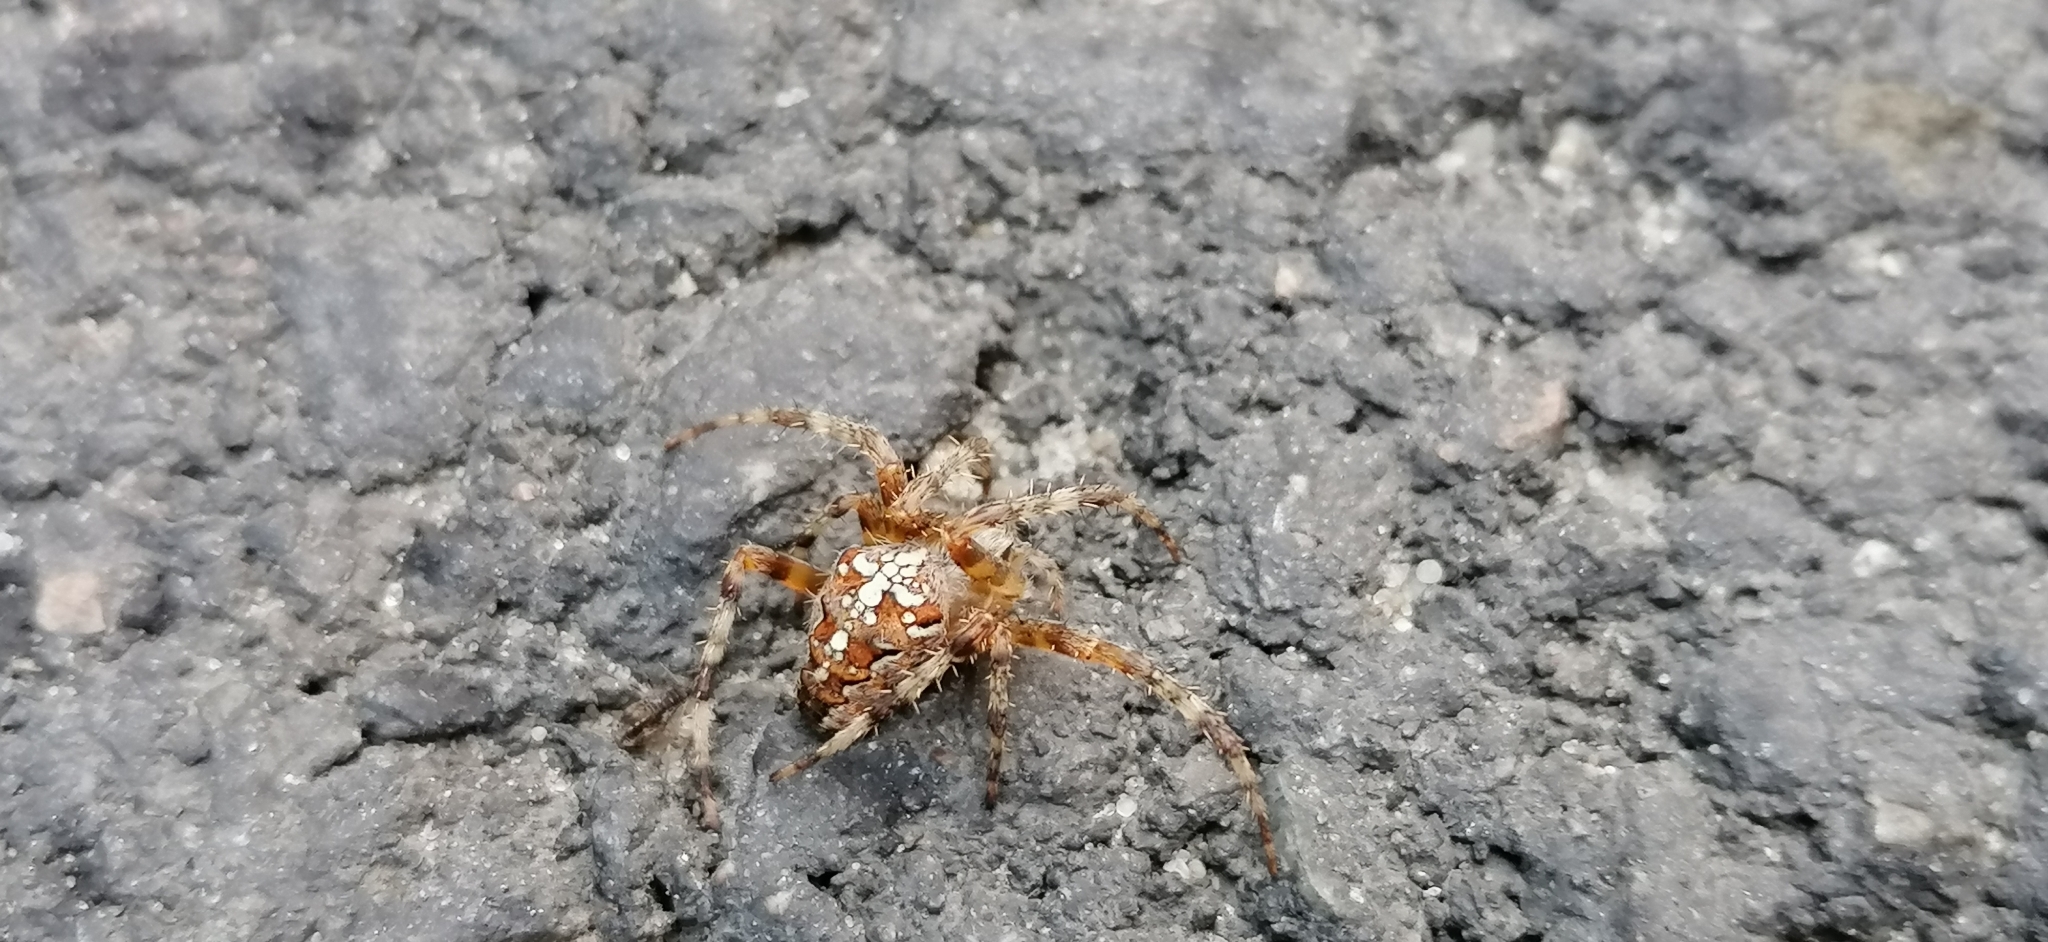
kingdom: Animalia
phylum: Arthropoda
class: Arachnida
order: Araneae
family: Araneidae
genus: Araneus
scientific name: Araneus diadematus
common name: Cross orbweaver
